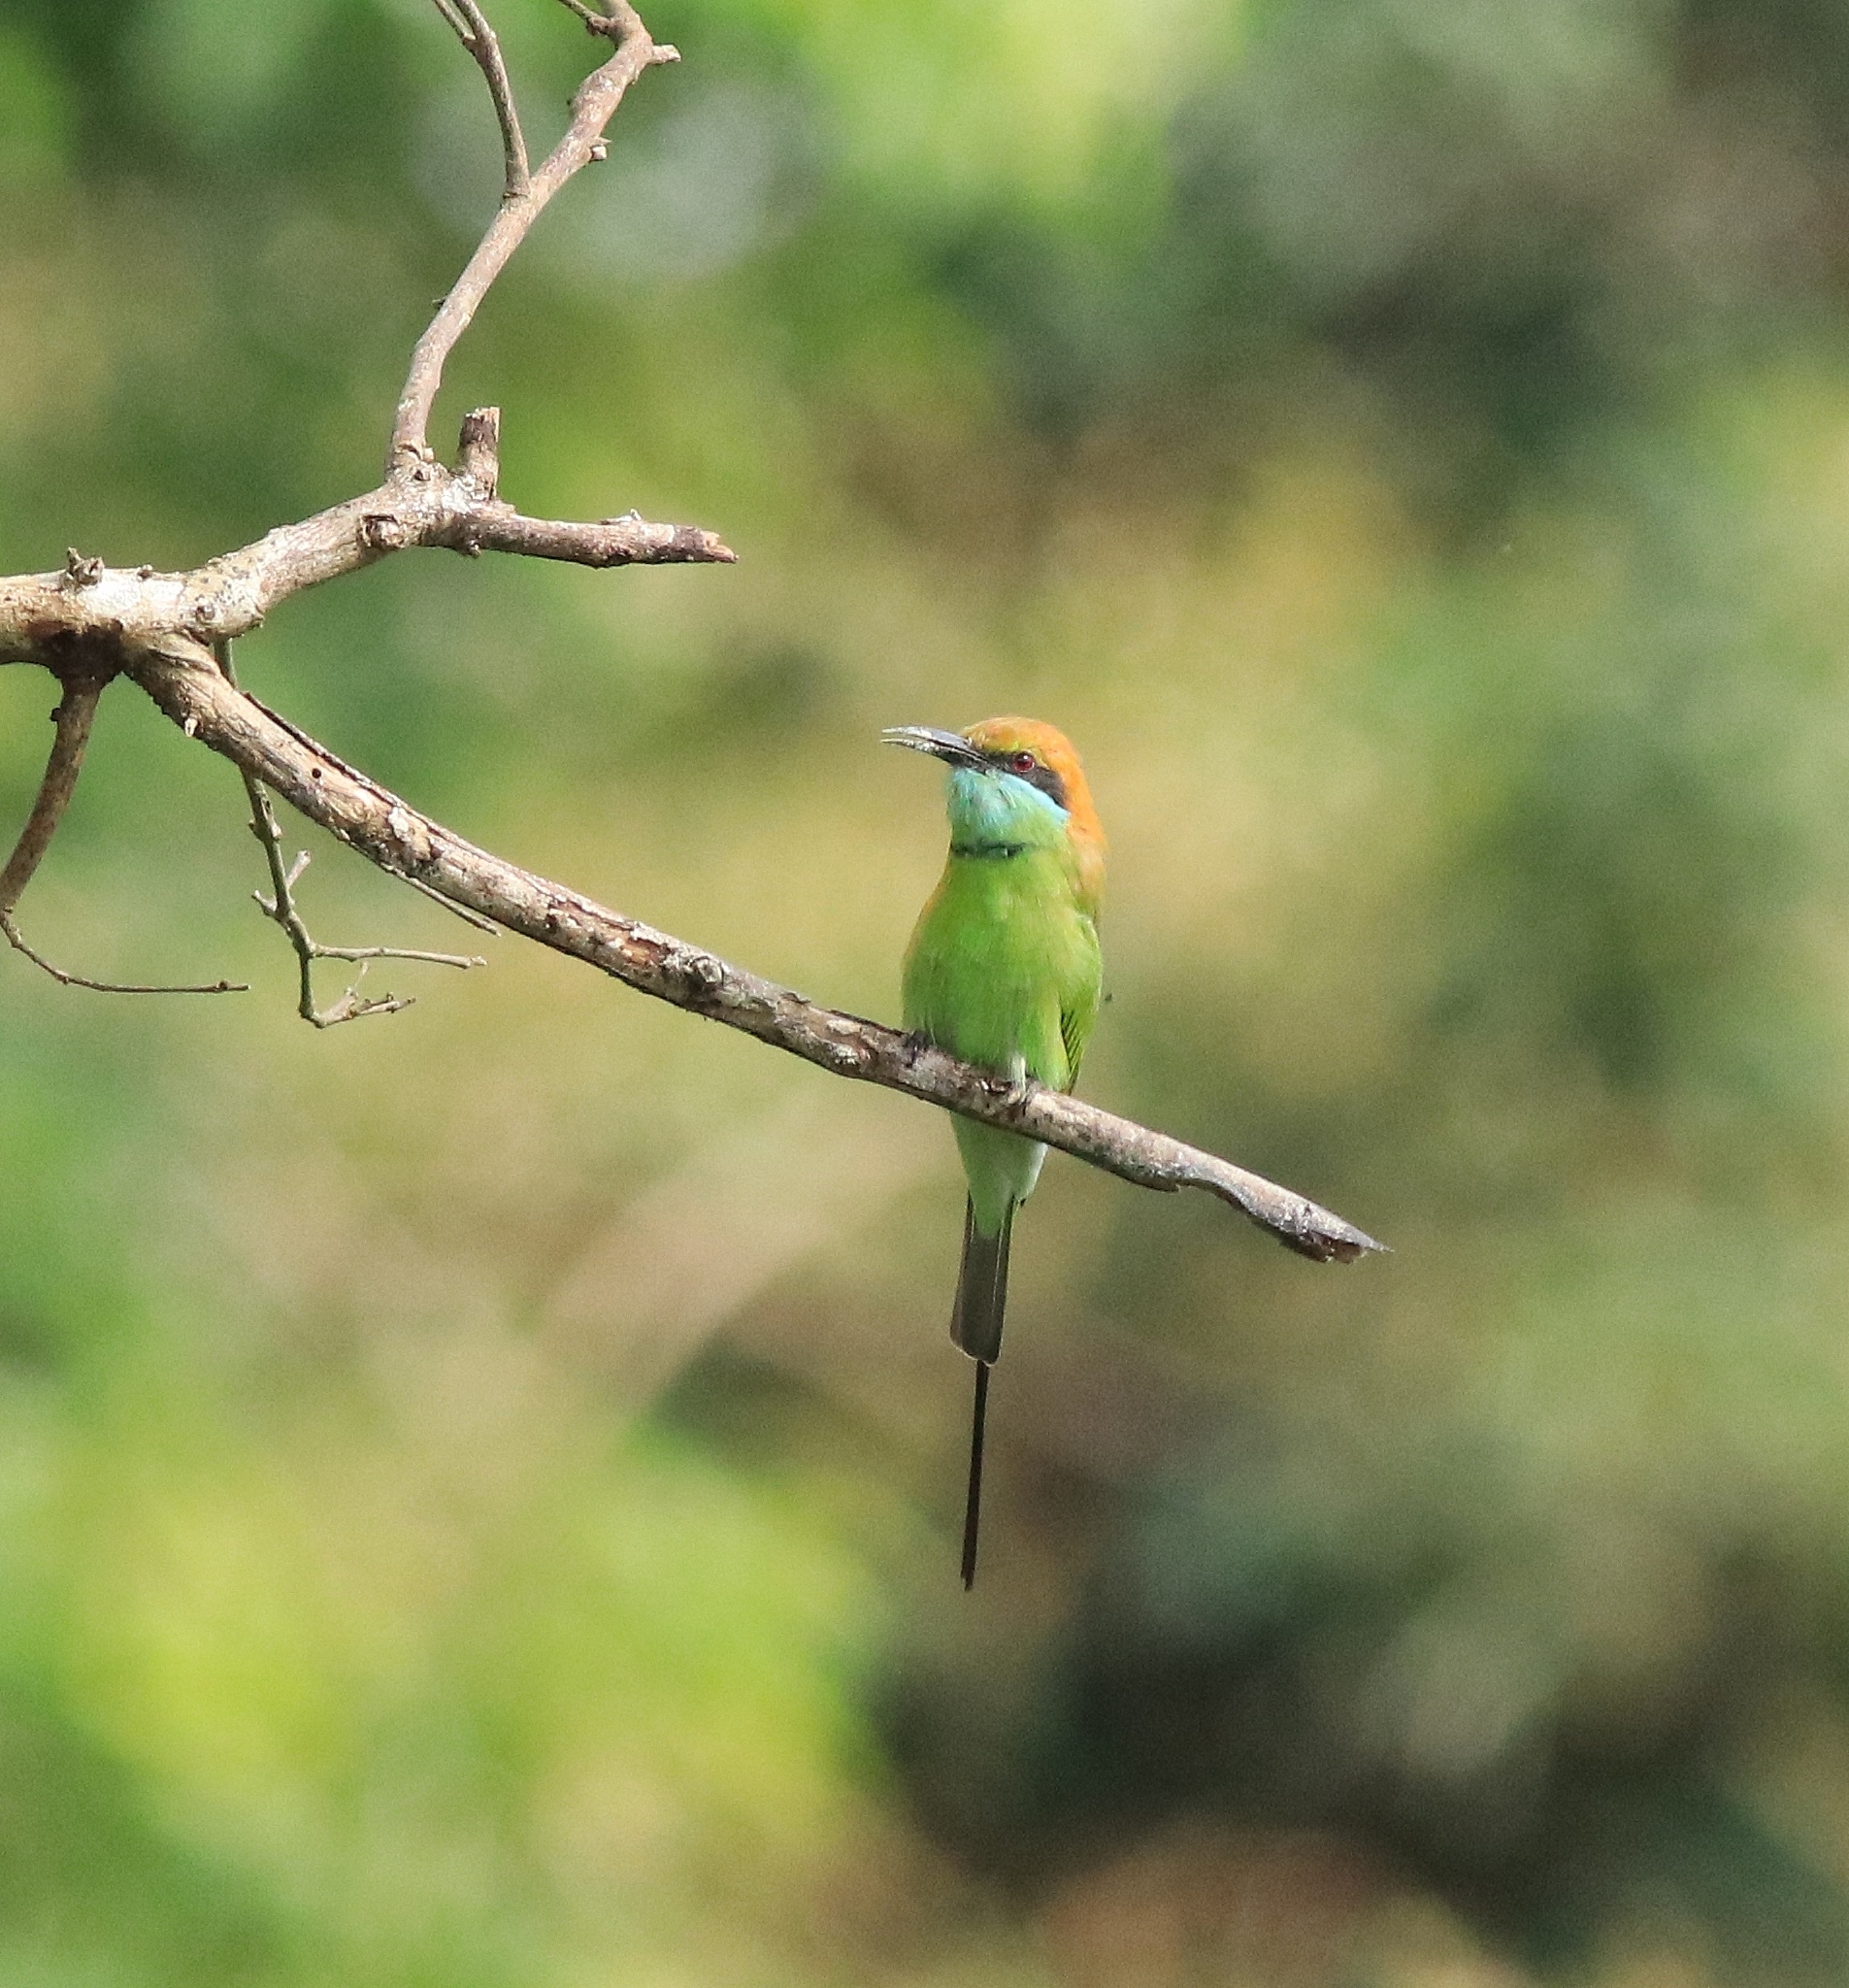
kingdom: Animalia
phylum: Chordata
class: Aves
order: Coraciiformes
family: Meropidae
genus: Merops
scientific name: Merops orientalis
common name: Green bee-eater
